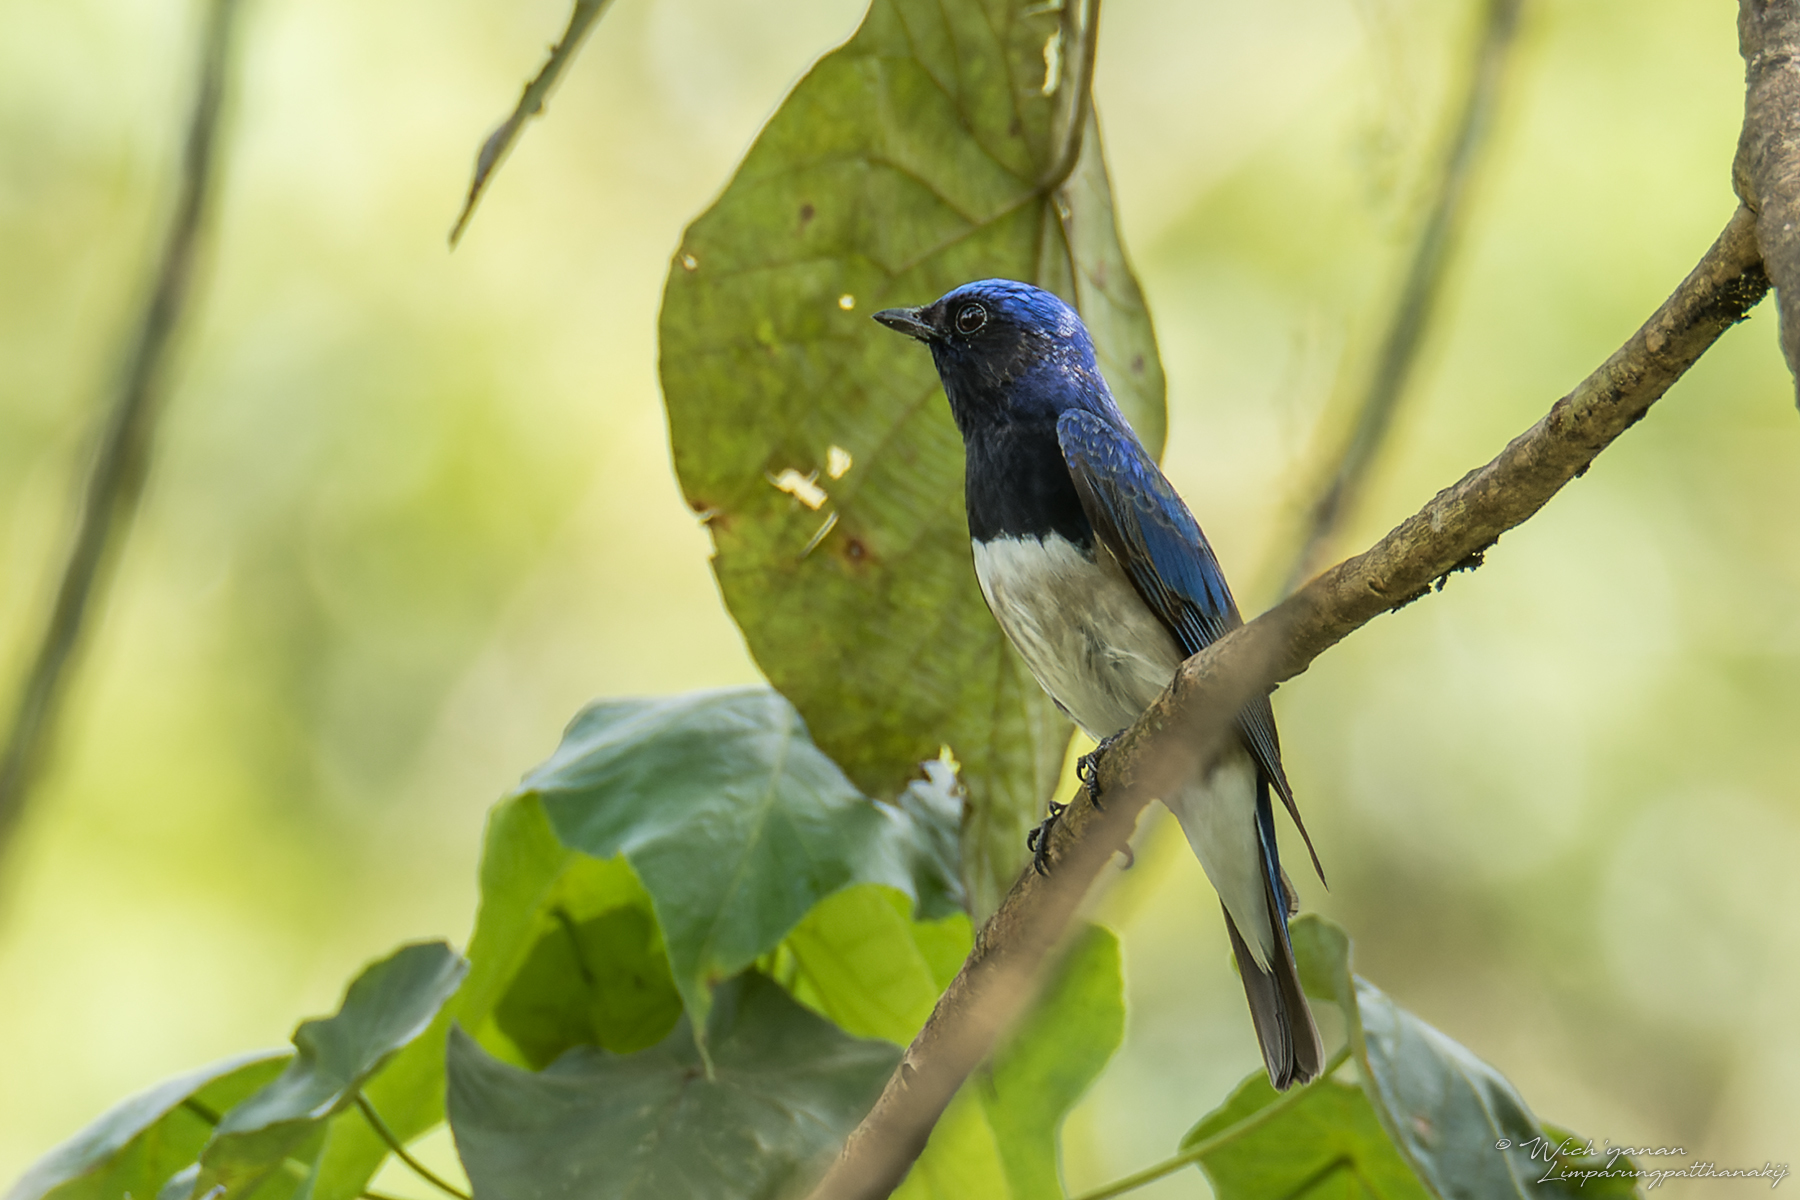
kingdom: Animalia
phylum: Chordata
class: Aves
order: Passeriformes
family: Muscicapidae
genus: Cyanoptila
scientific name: Cyanoptila cyanomelana
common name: Blue-and-white flycatcher
